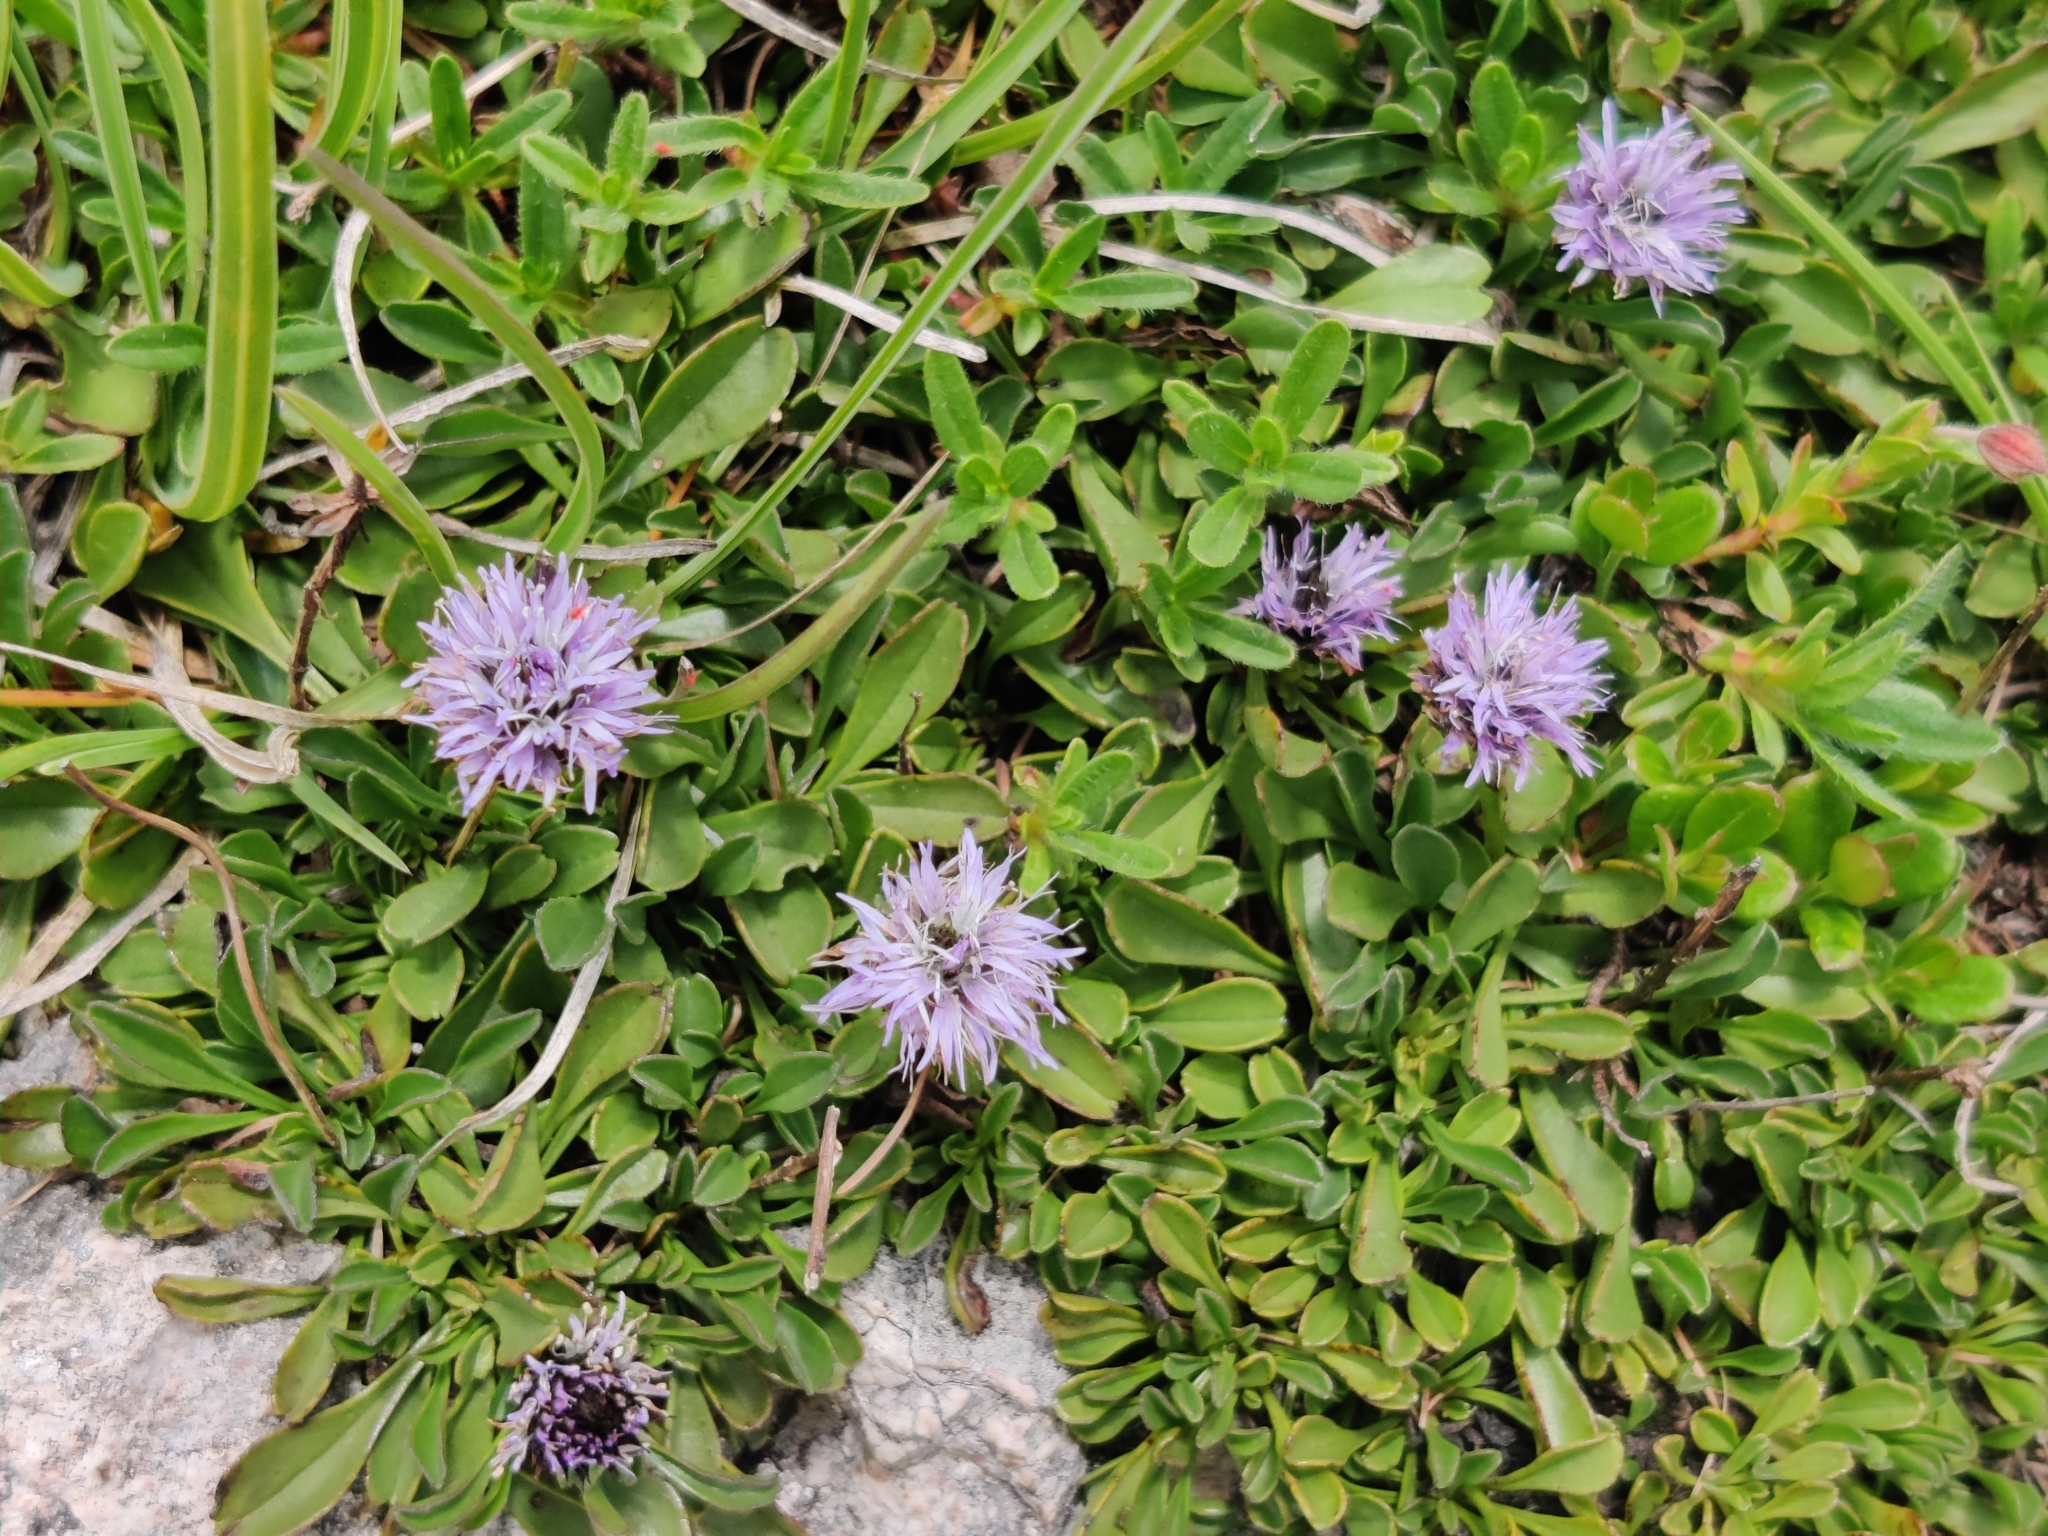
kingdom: Plantae
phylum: Tracheophyta
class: Magnoliopsida
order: Lamiales
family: Plantaginaceae
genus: Globularia
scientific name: Globularia cordifolia
